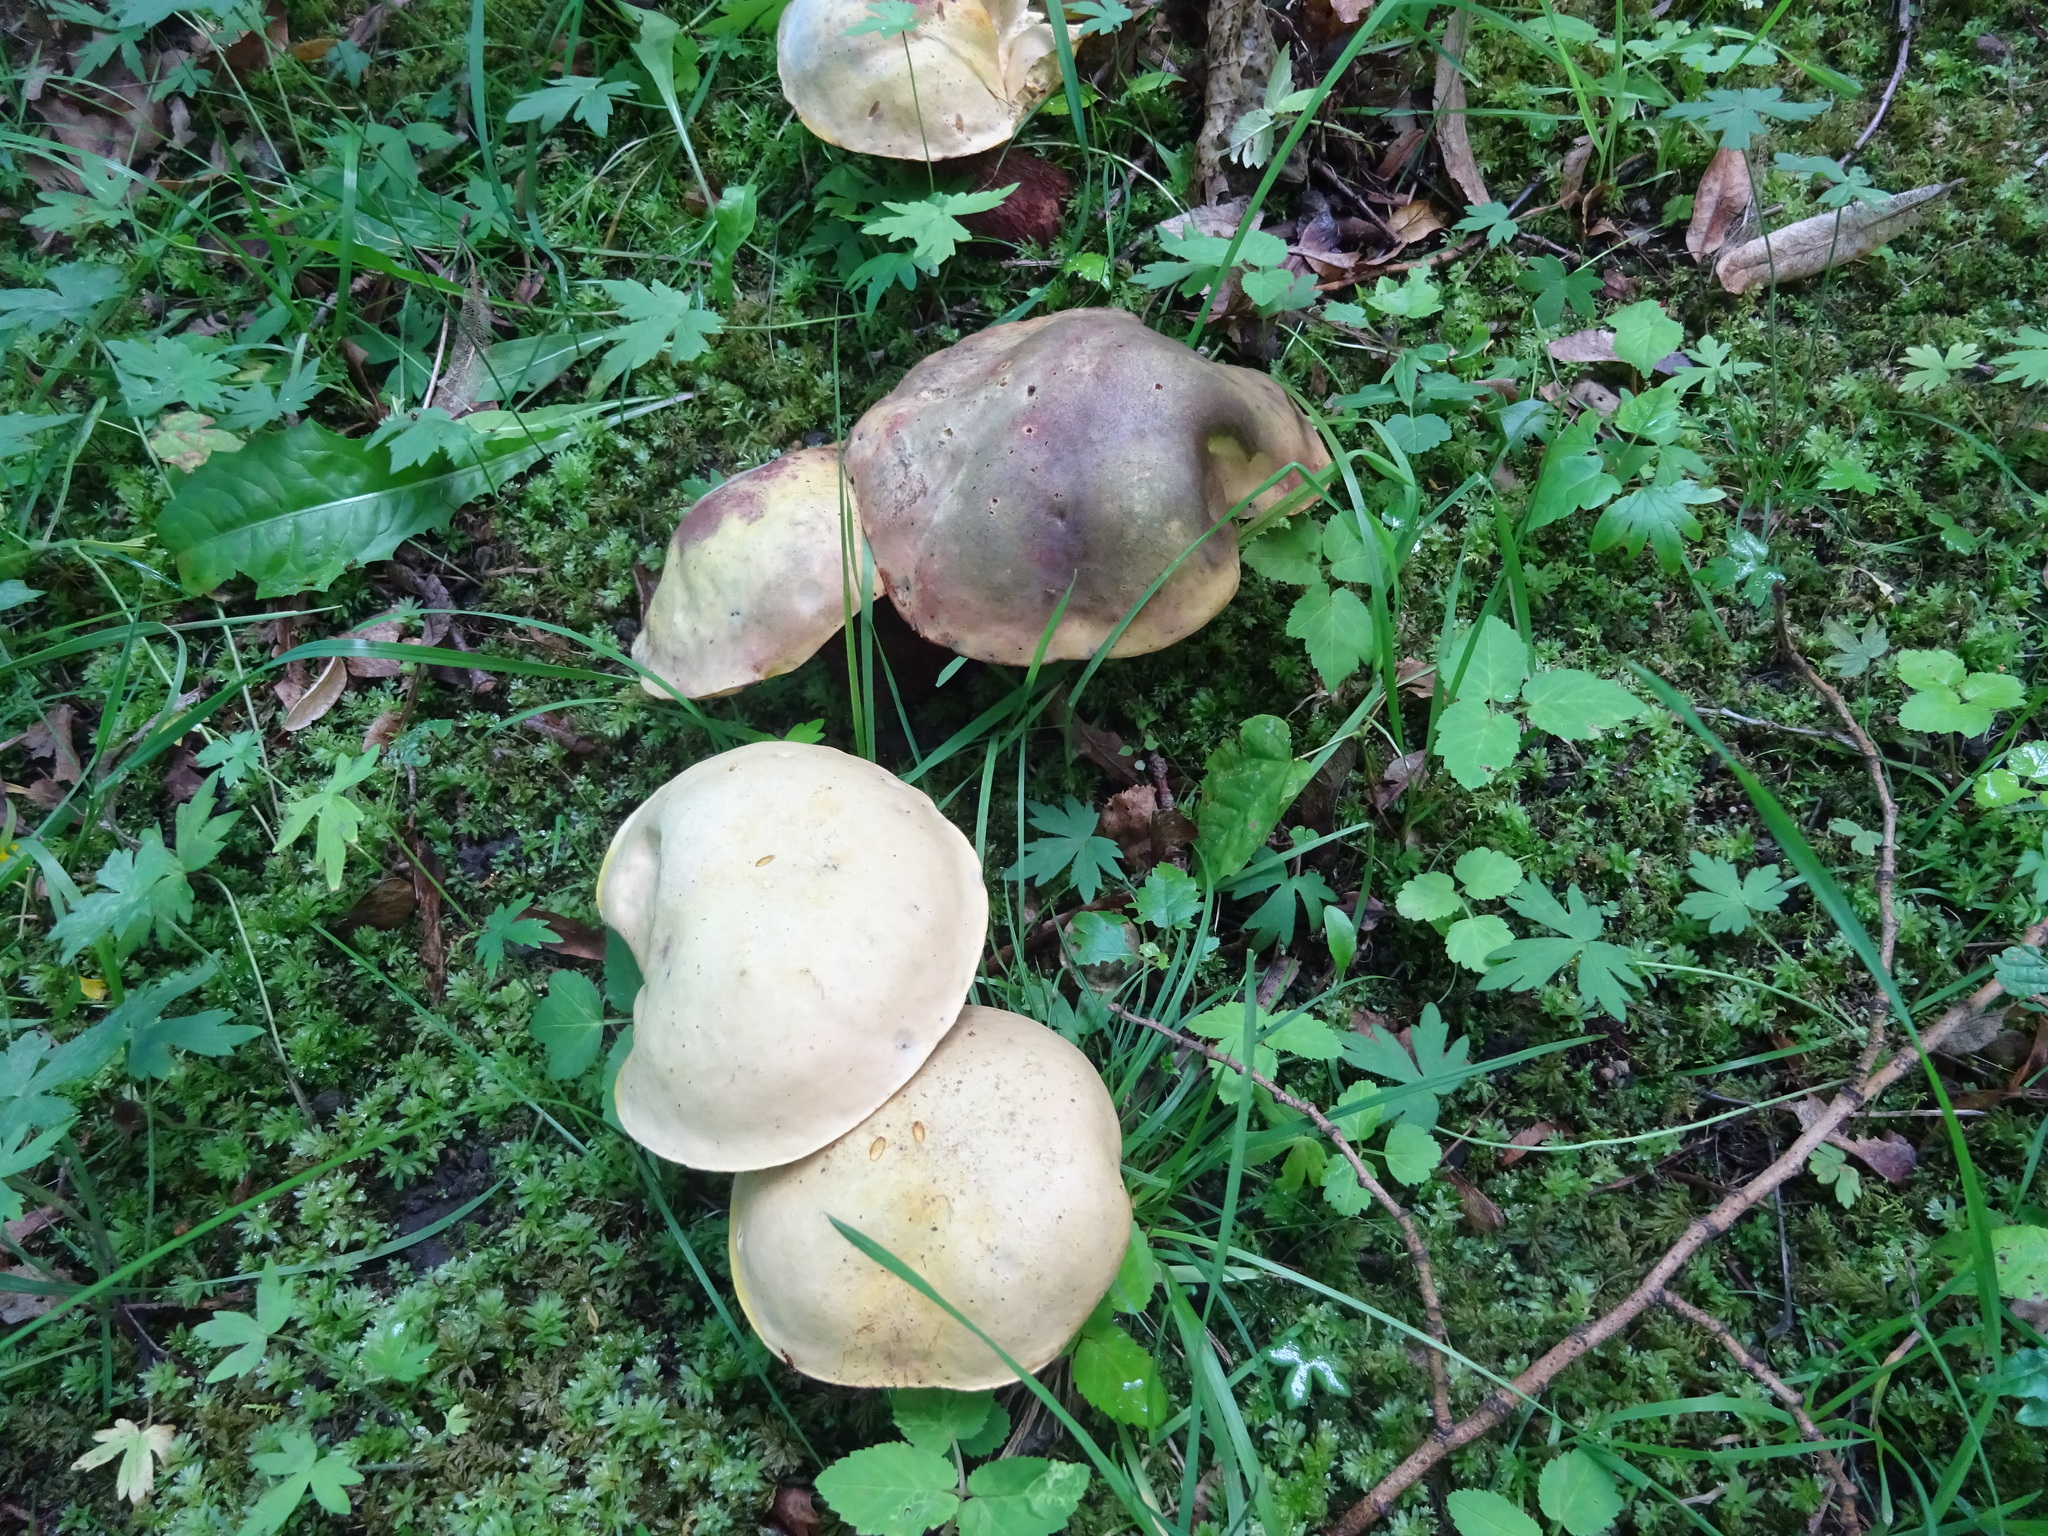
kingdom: Fungi
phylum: Basidiomycota
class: Agaricomycetes
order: Boletales
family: Boletaceae
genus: Suillellus
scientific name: Suillellus luridus
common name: Lurid bolete
